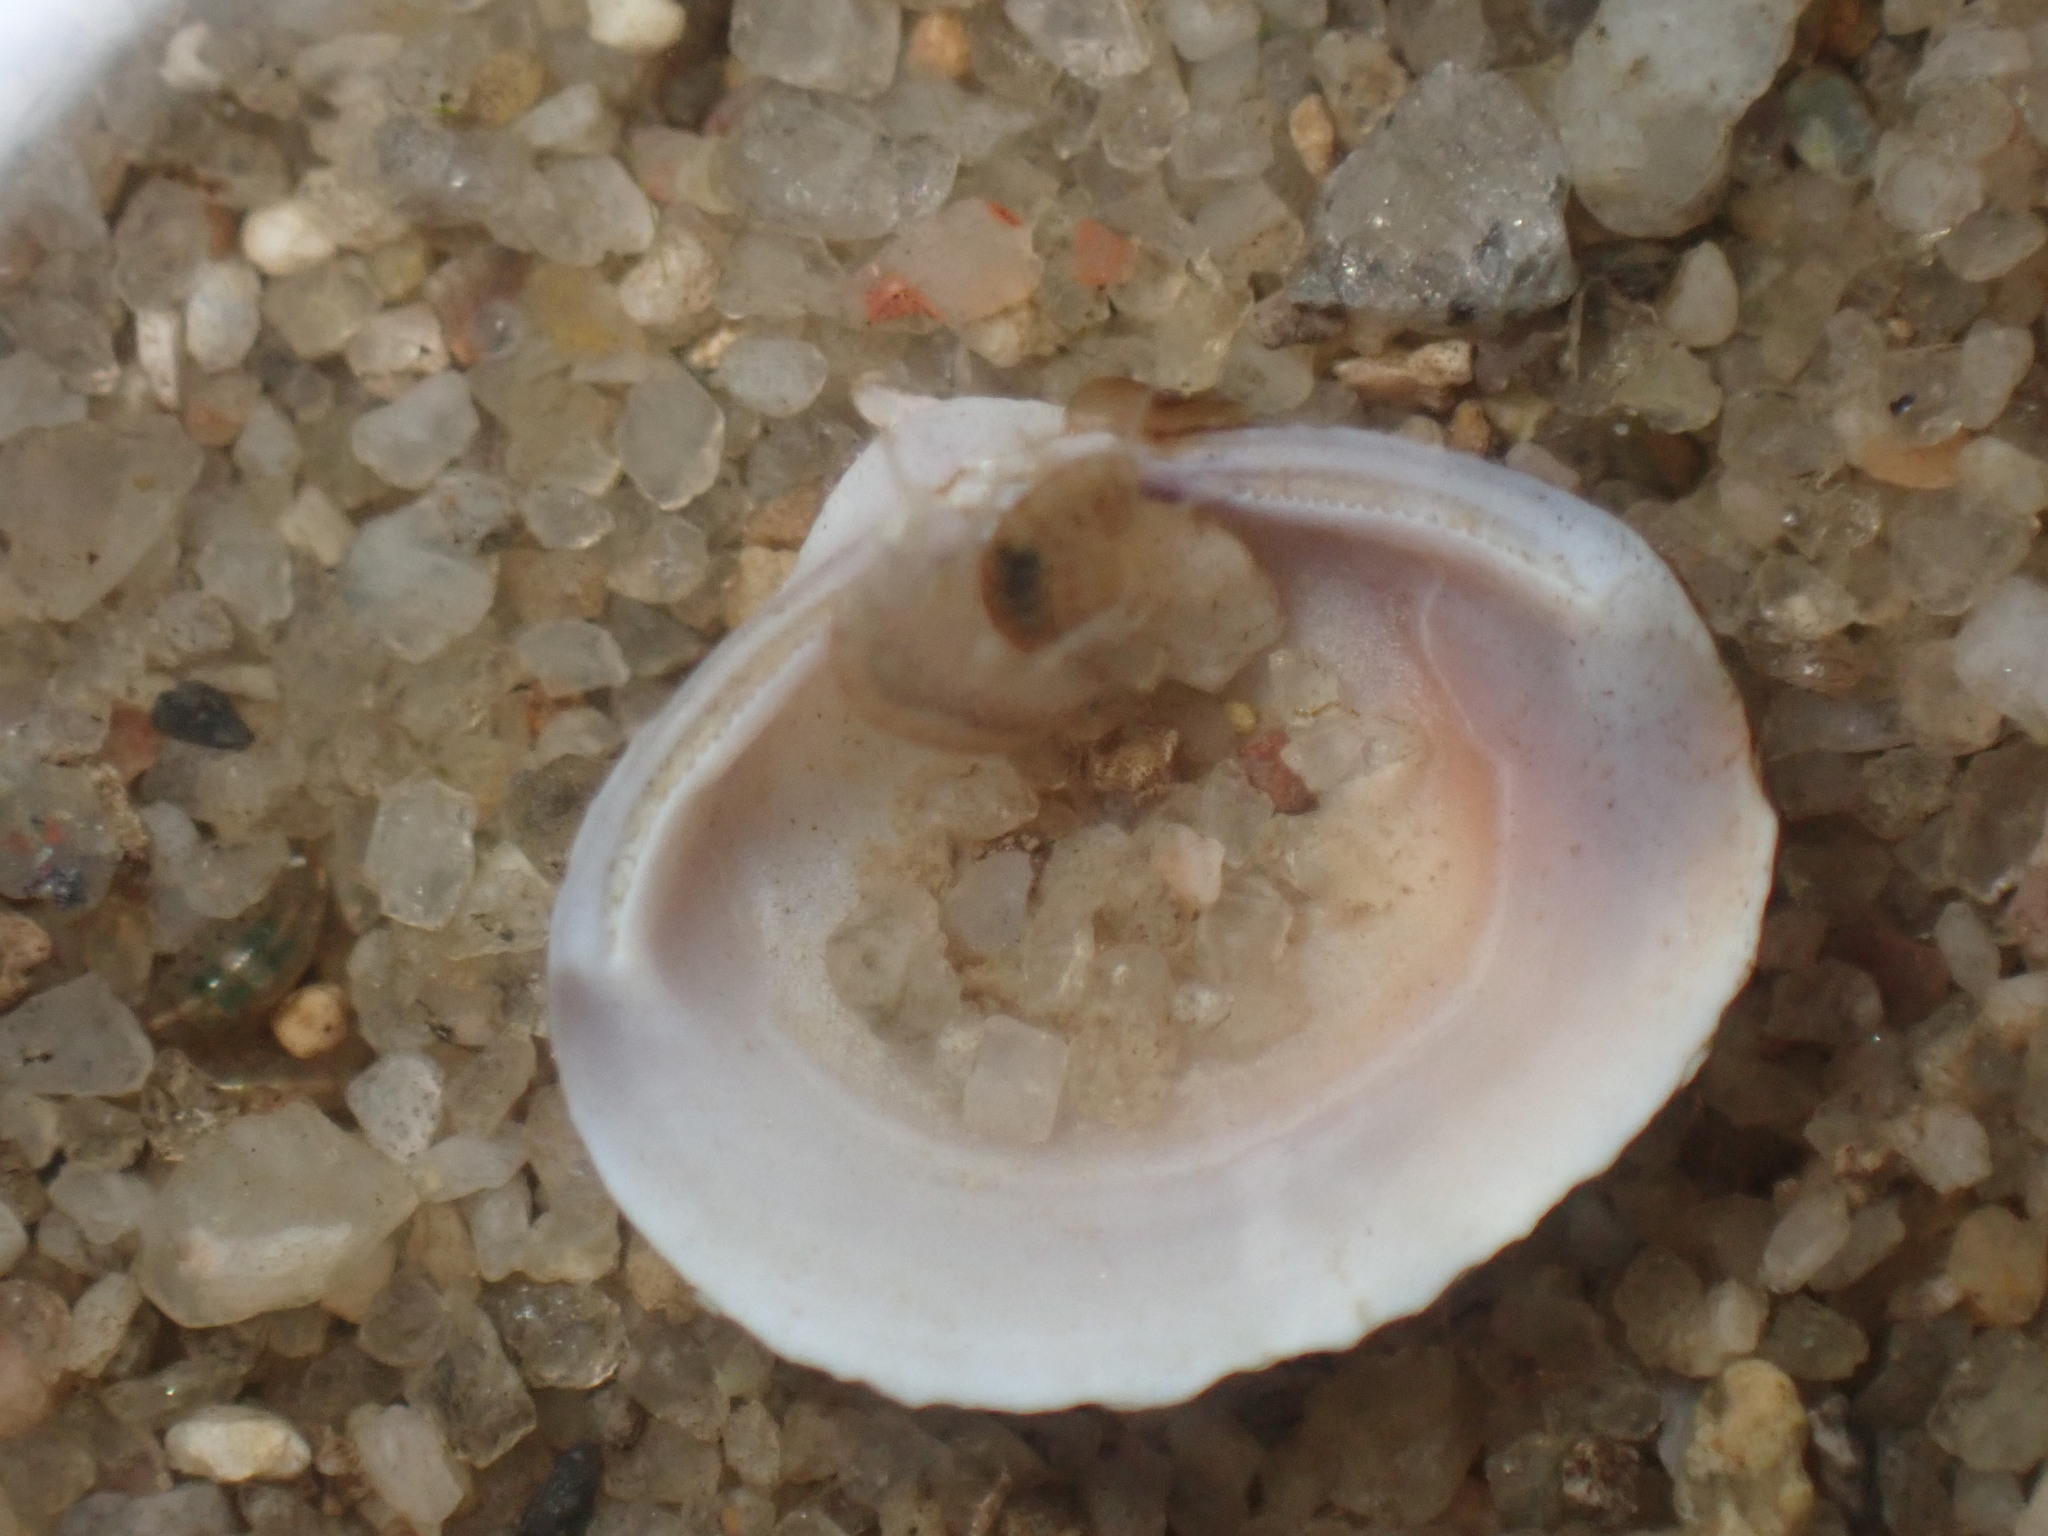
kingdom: Animalia
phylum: Mollusca
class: Bivalvia
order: Venerida
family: Cyrenidae
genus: Corbicula
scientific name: Corbicula fluminea
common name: Asian clam
